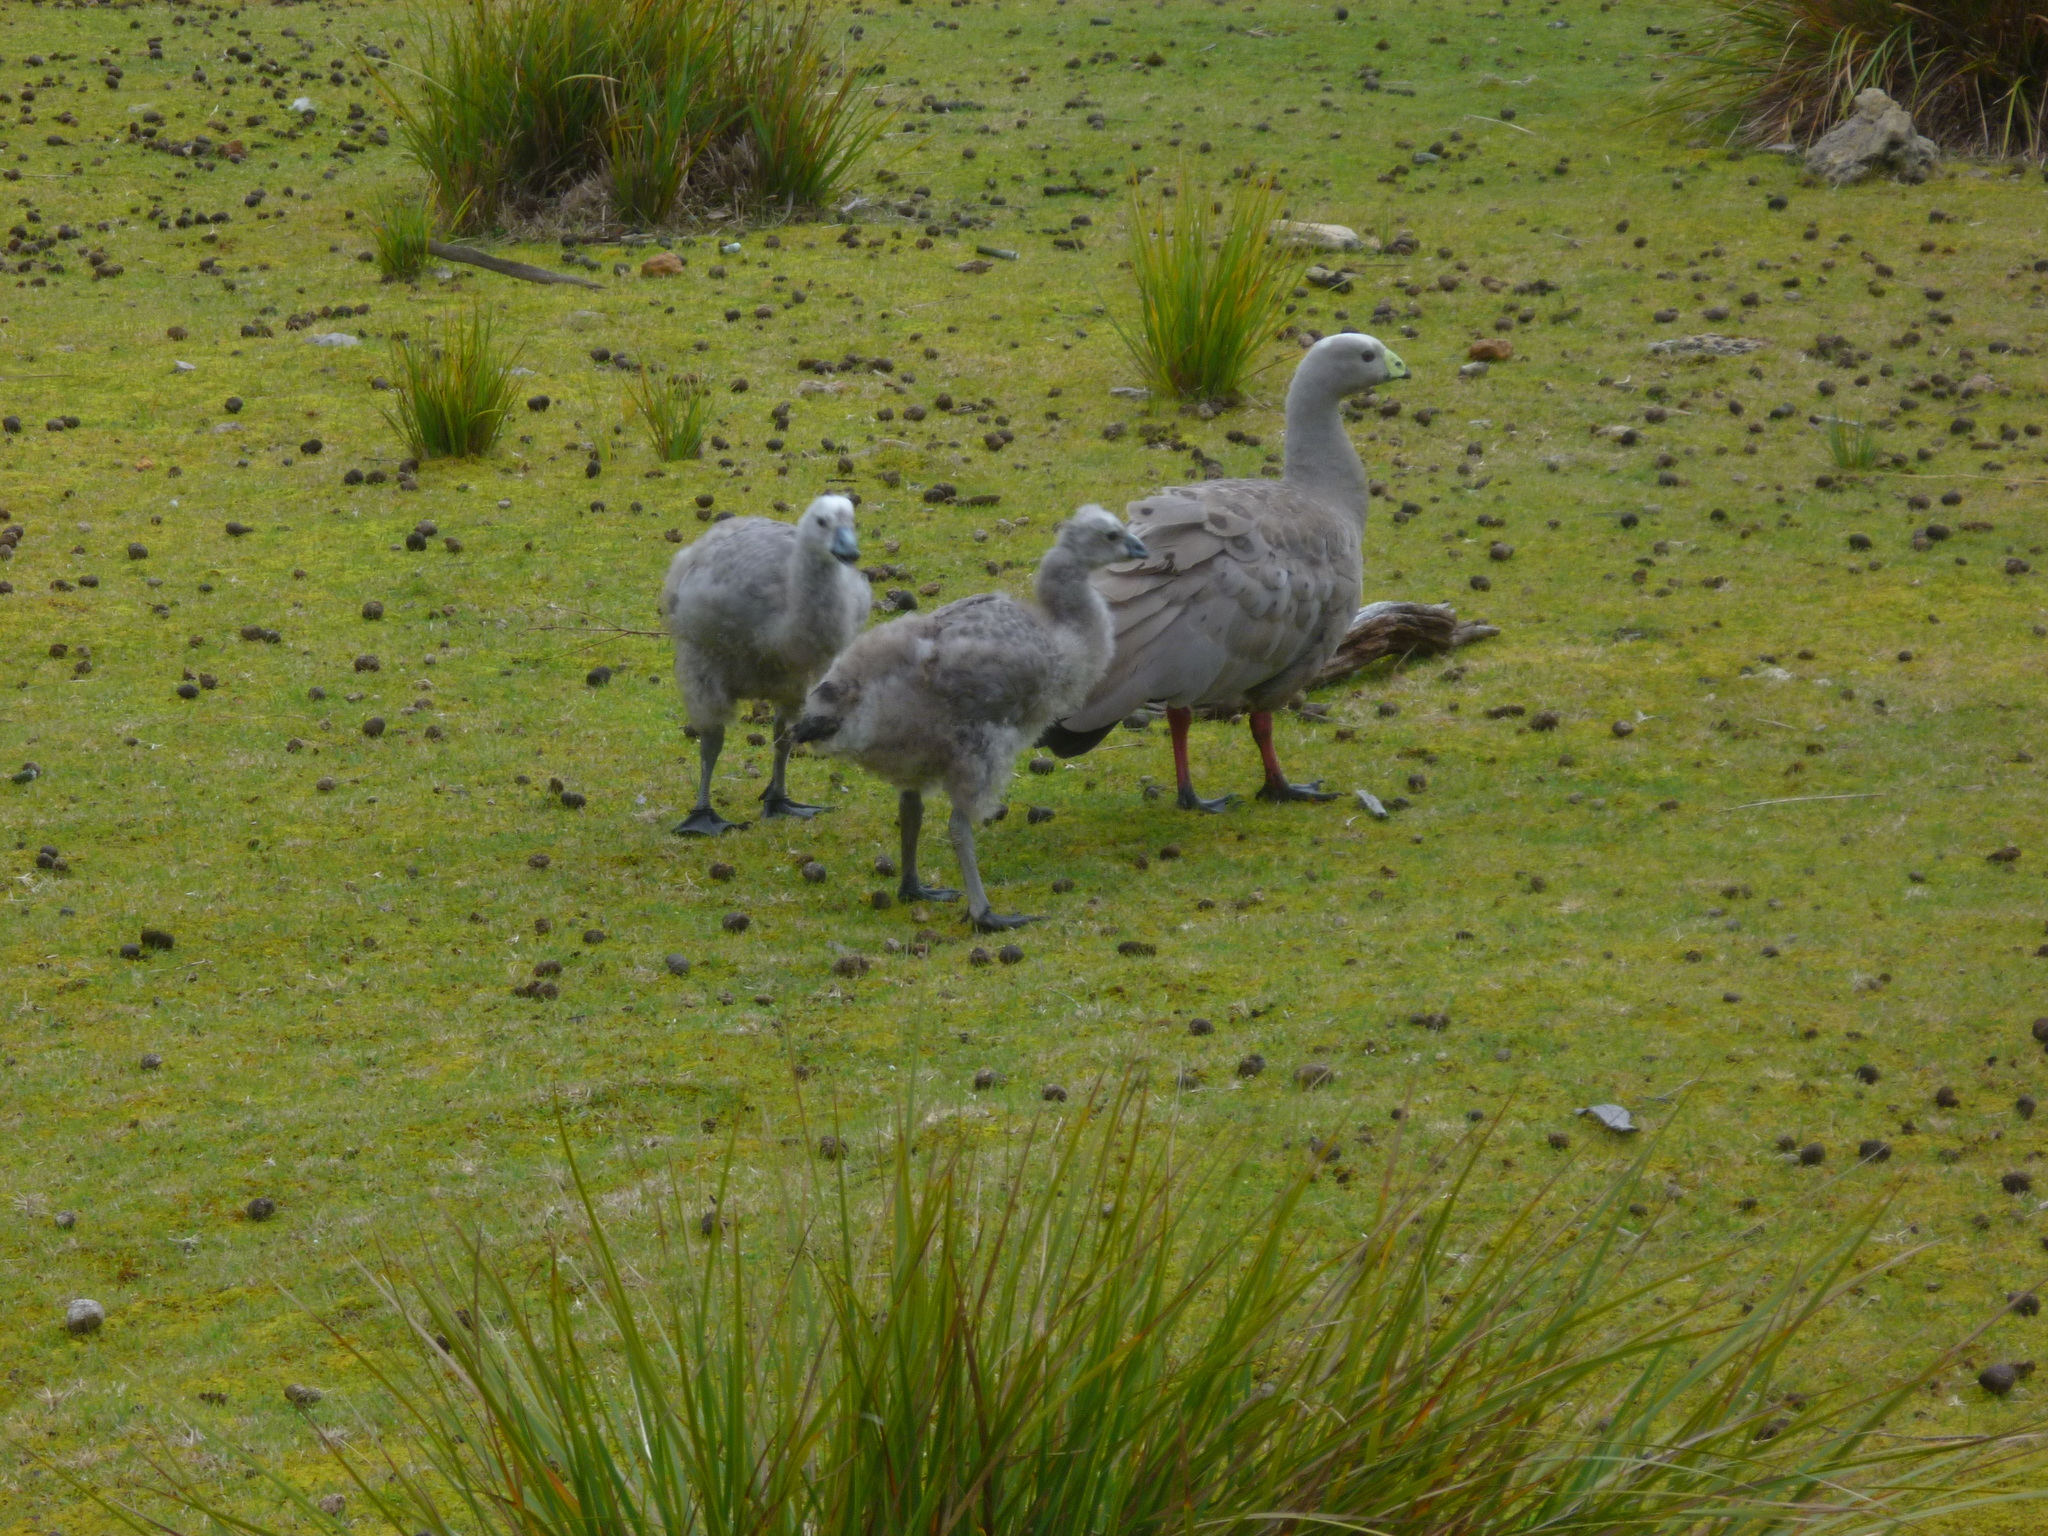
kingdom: Animalia
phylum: Chordata
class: Aves
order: Anseriformes
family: Anatidae
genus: Cereopsis
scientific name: Cereopsis novaehollandiae
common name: Cape barren goose
